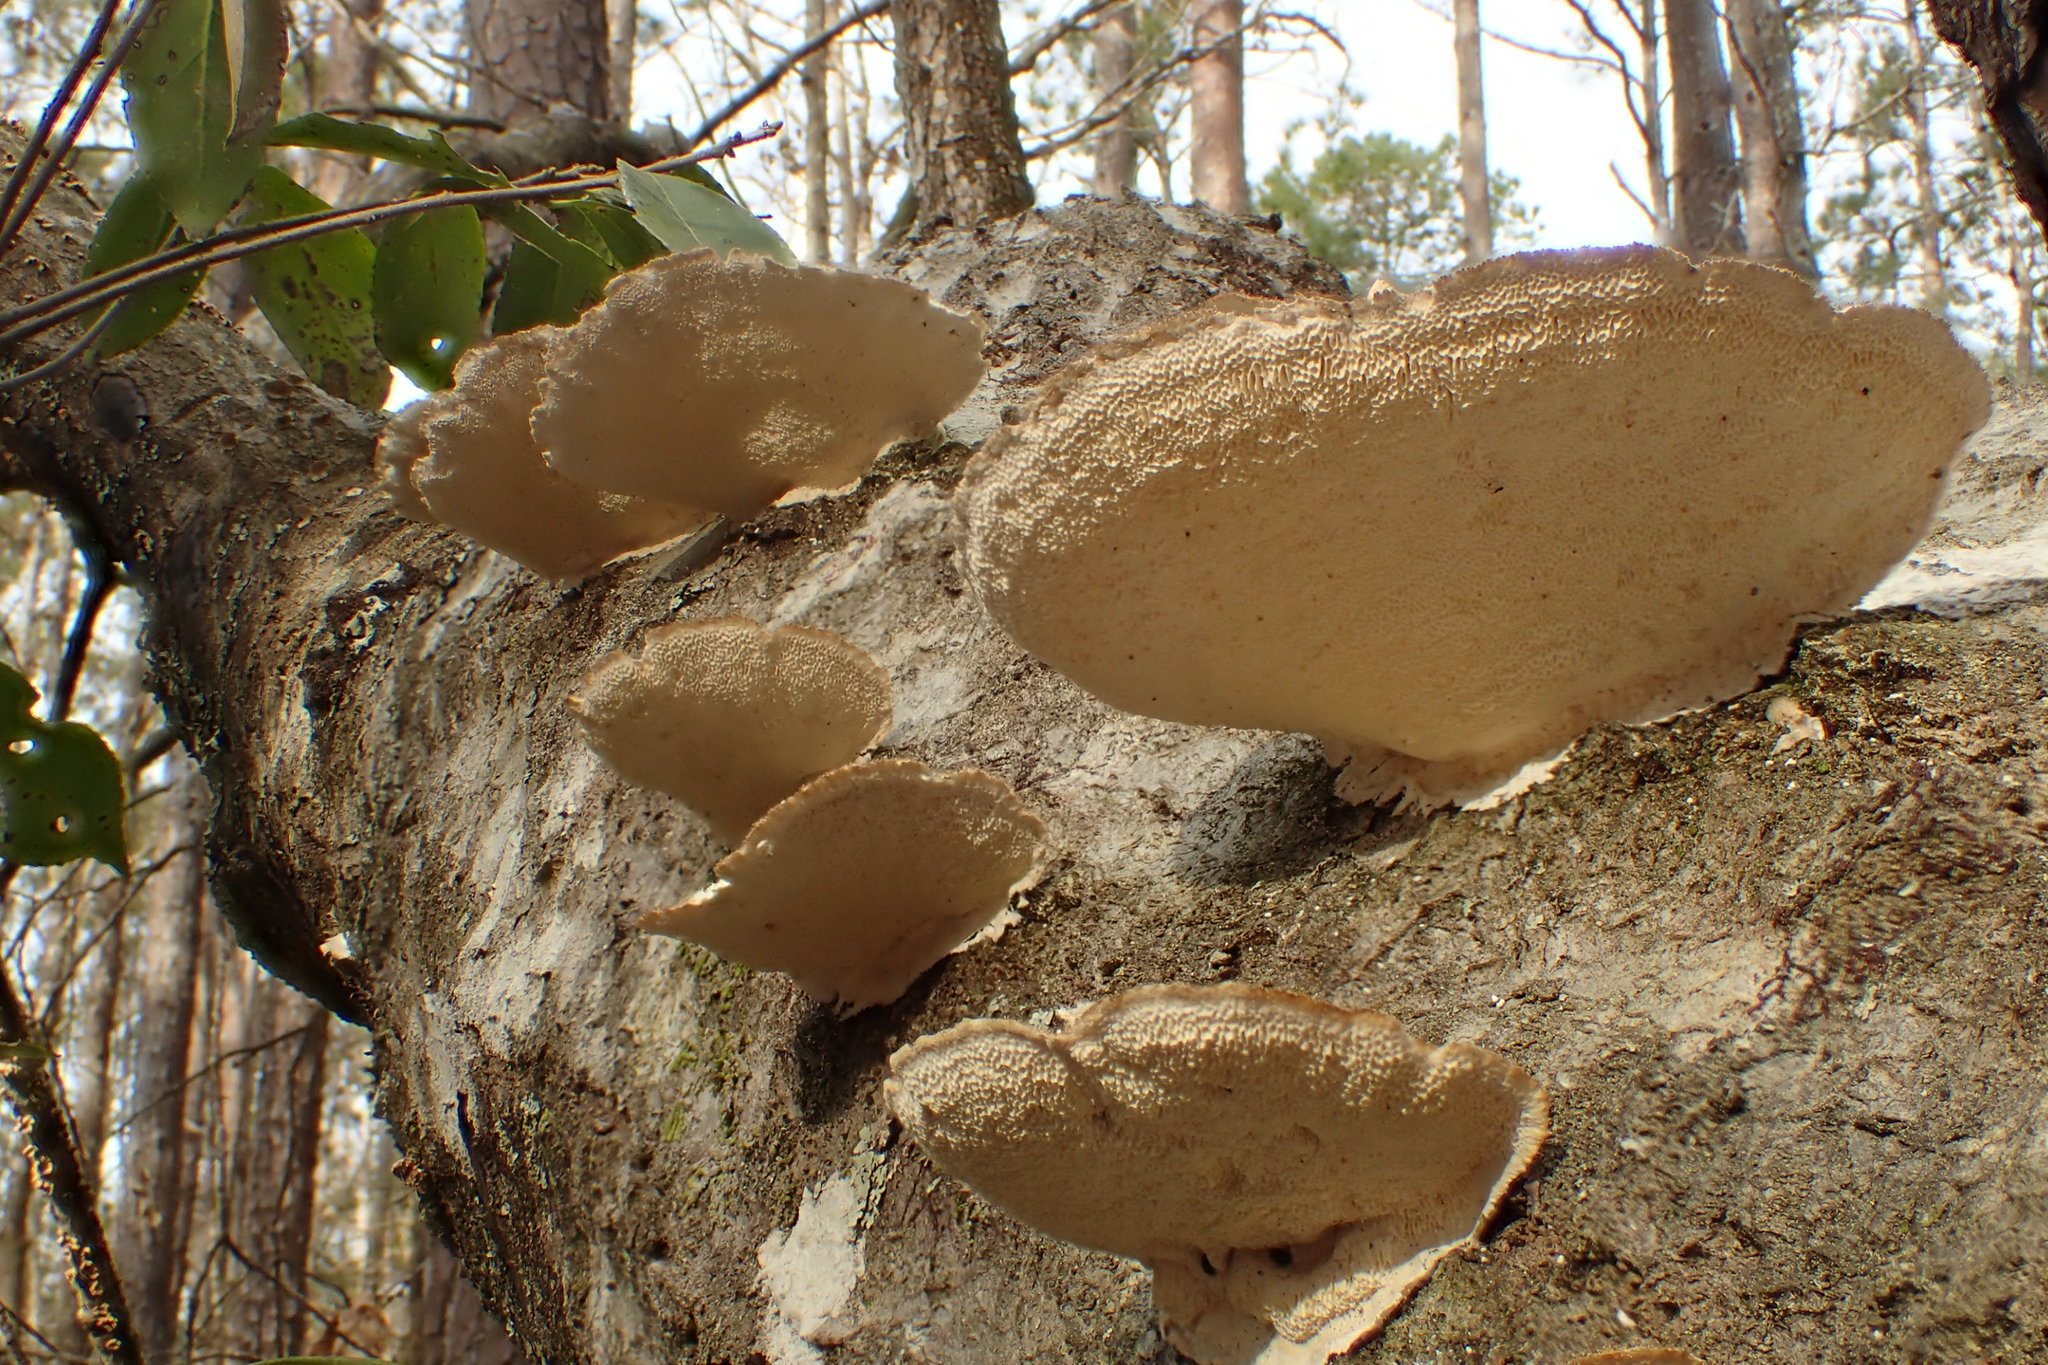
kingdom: Fungi
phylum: Basidiomycota
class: Agaricomycetes
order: Polyporales
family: Polyporaceae
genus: Trametes
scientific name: Trametes hirsuta
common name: Hairy bracket
